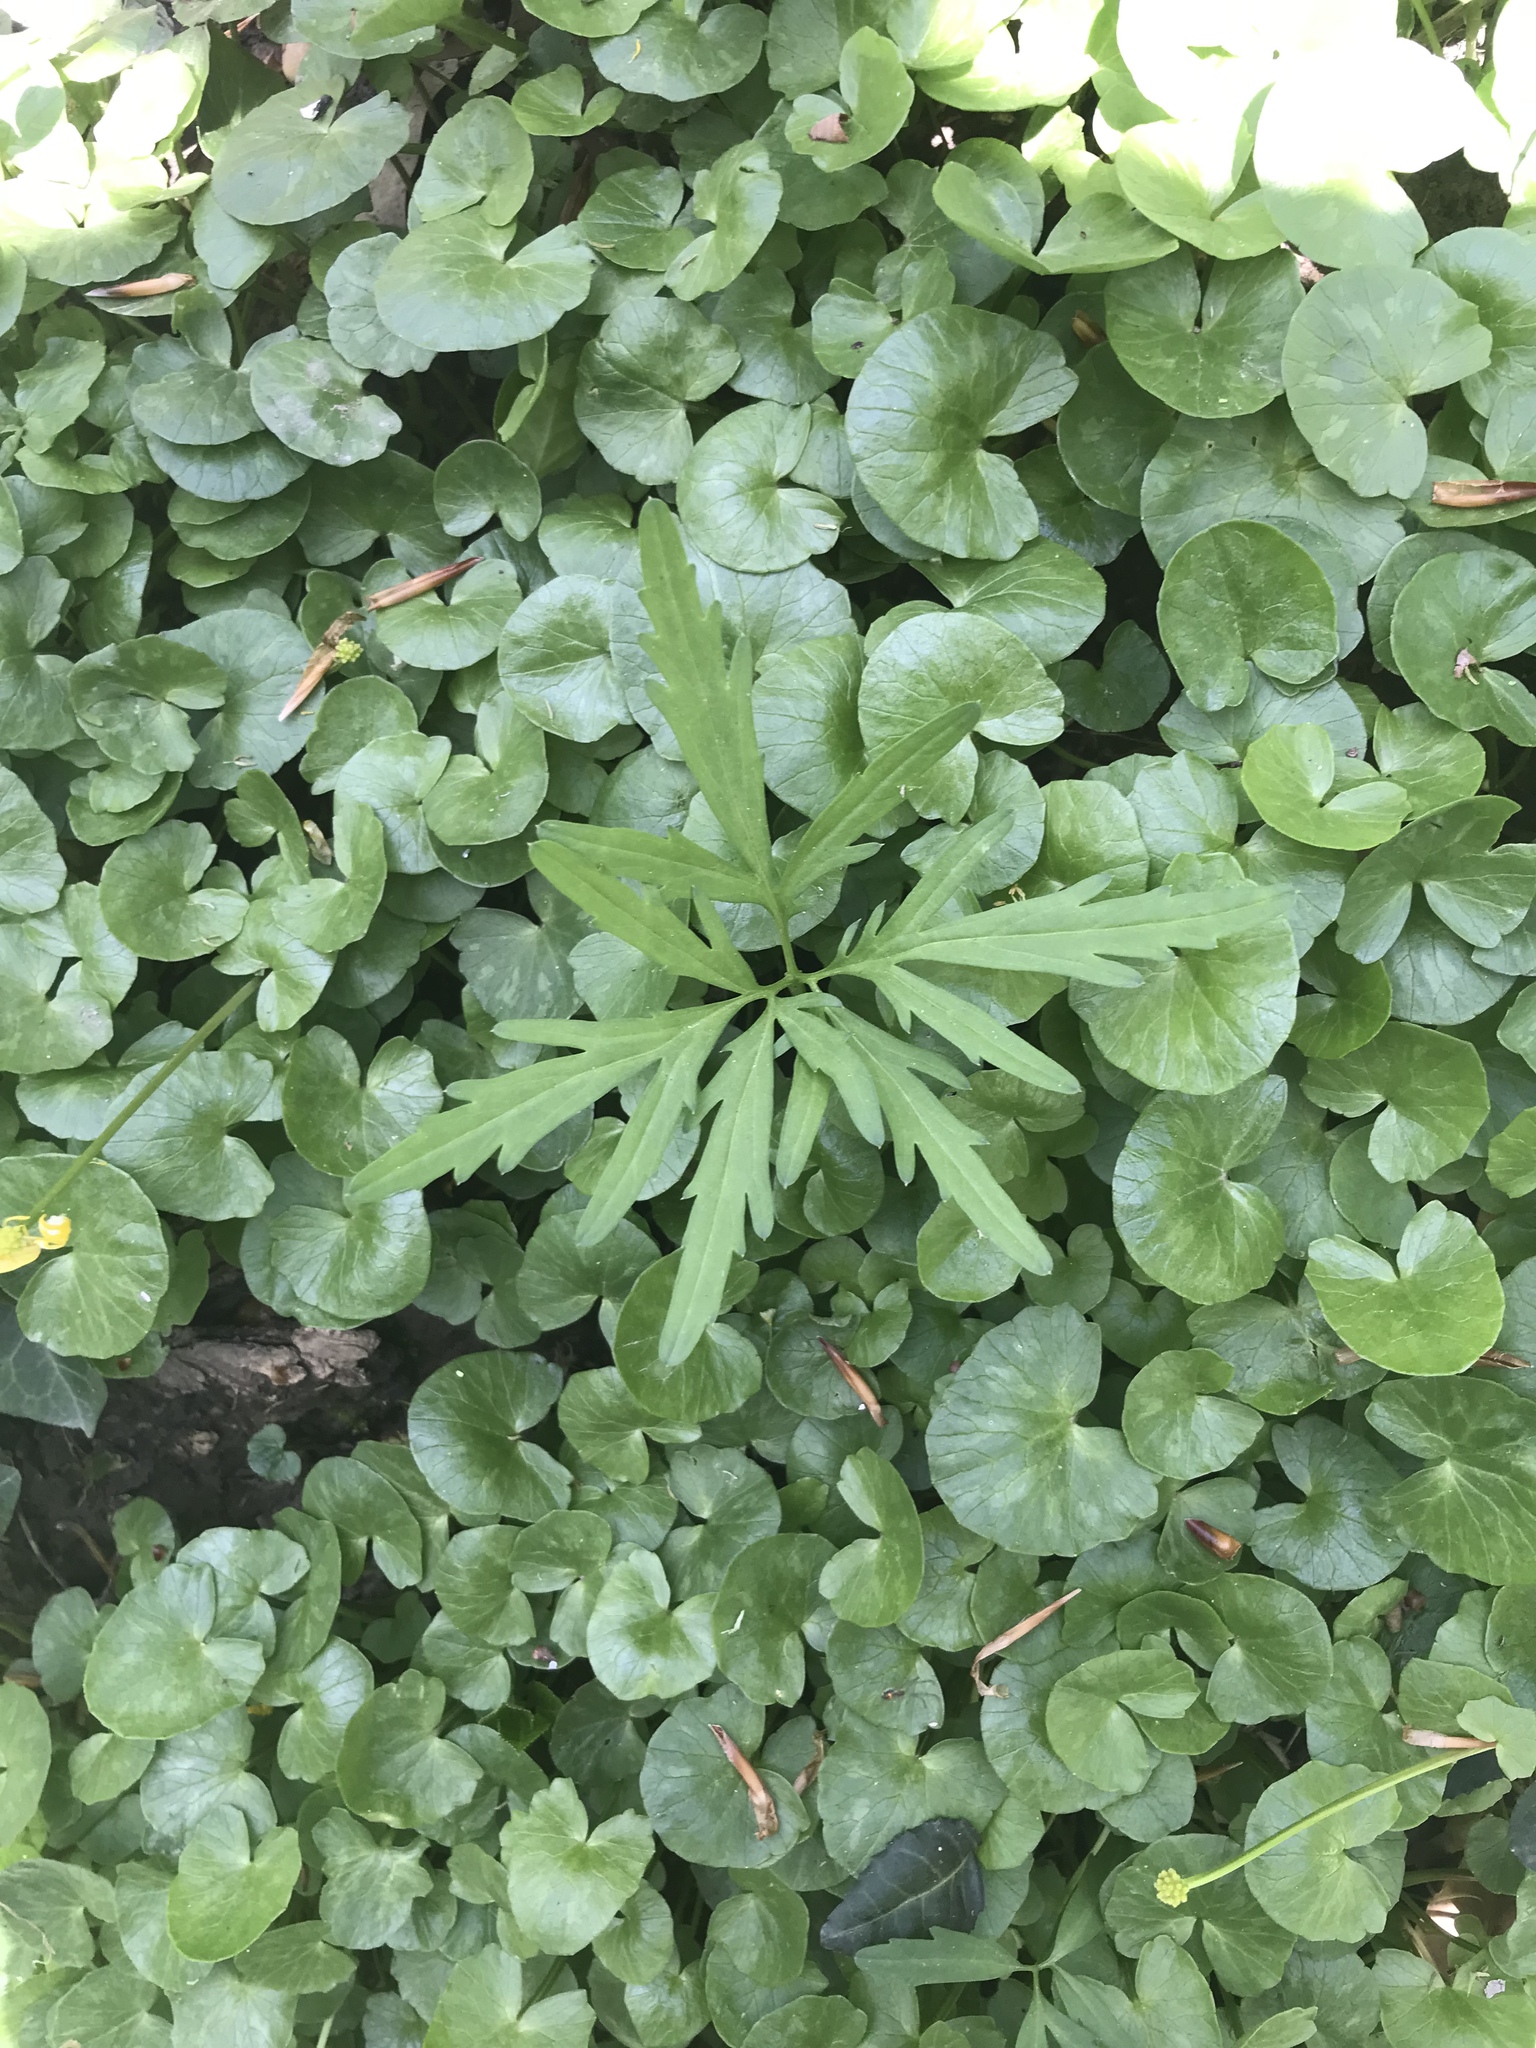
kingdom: Plantae
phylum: Tracheophyta
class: Magnoliopsida
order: Brassicales
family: Brassicaceae
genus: Cardamine
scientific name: Cardamine concatenata
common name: Cut-leaf toothcup
